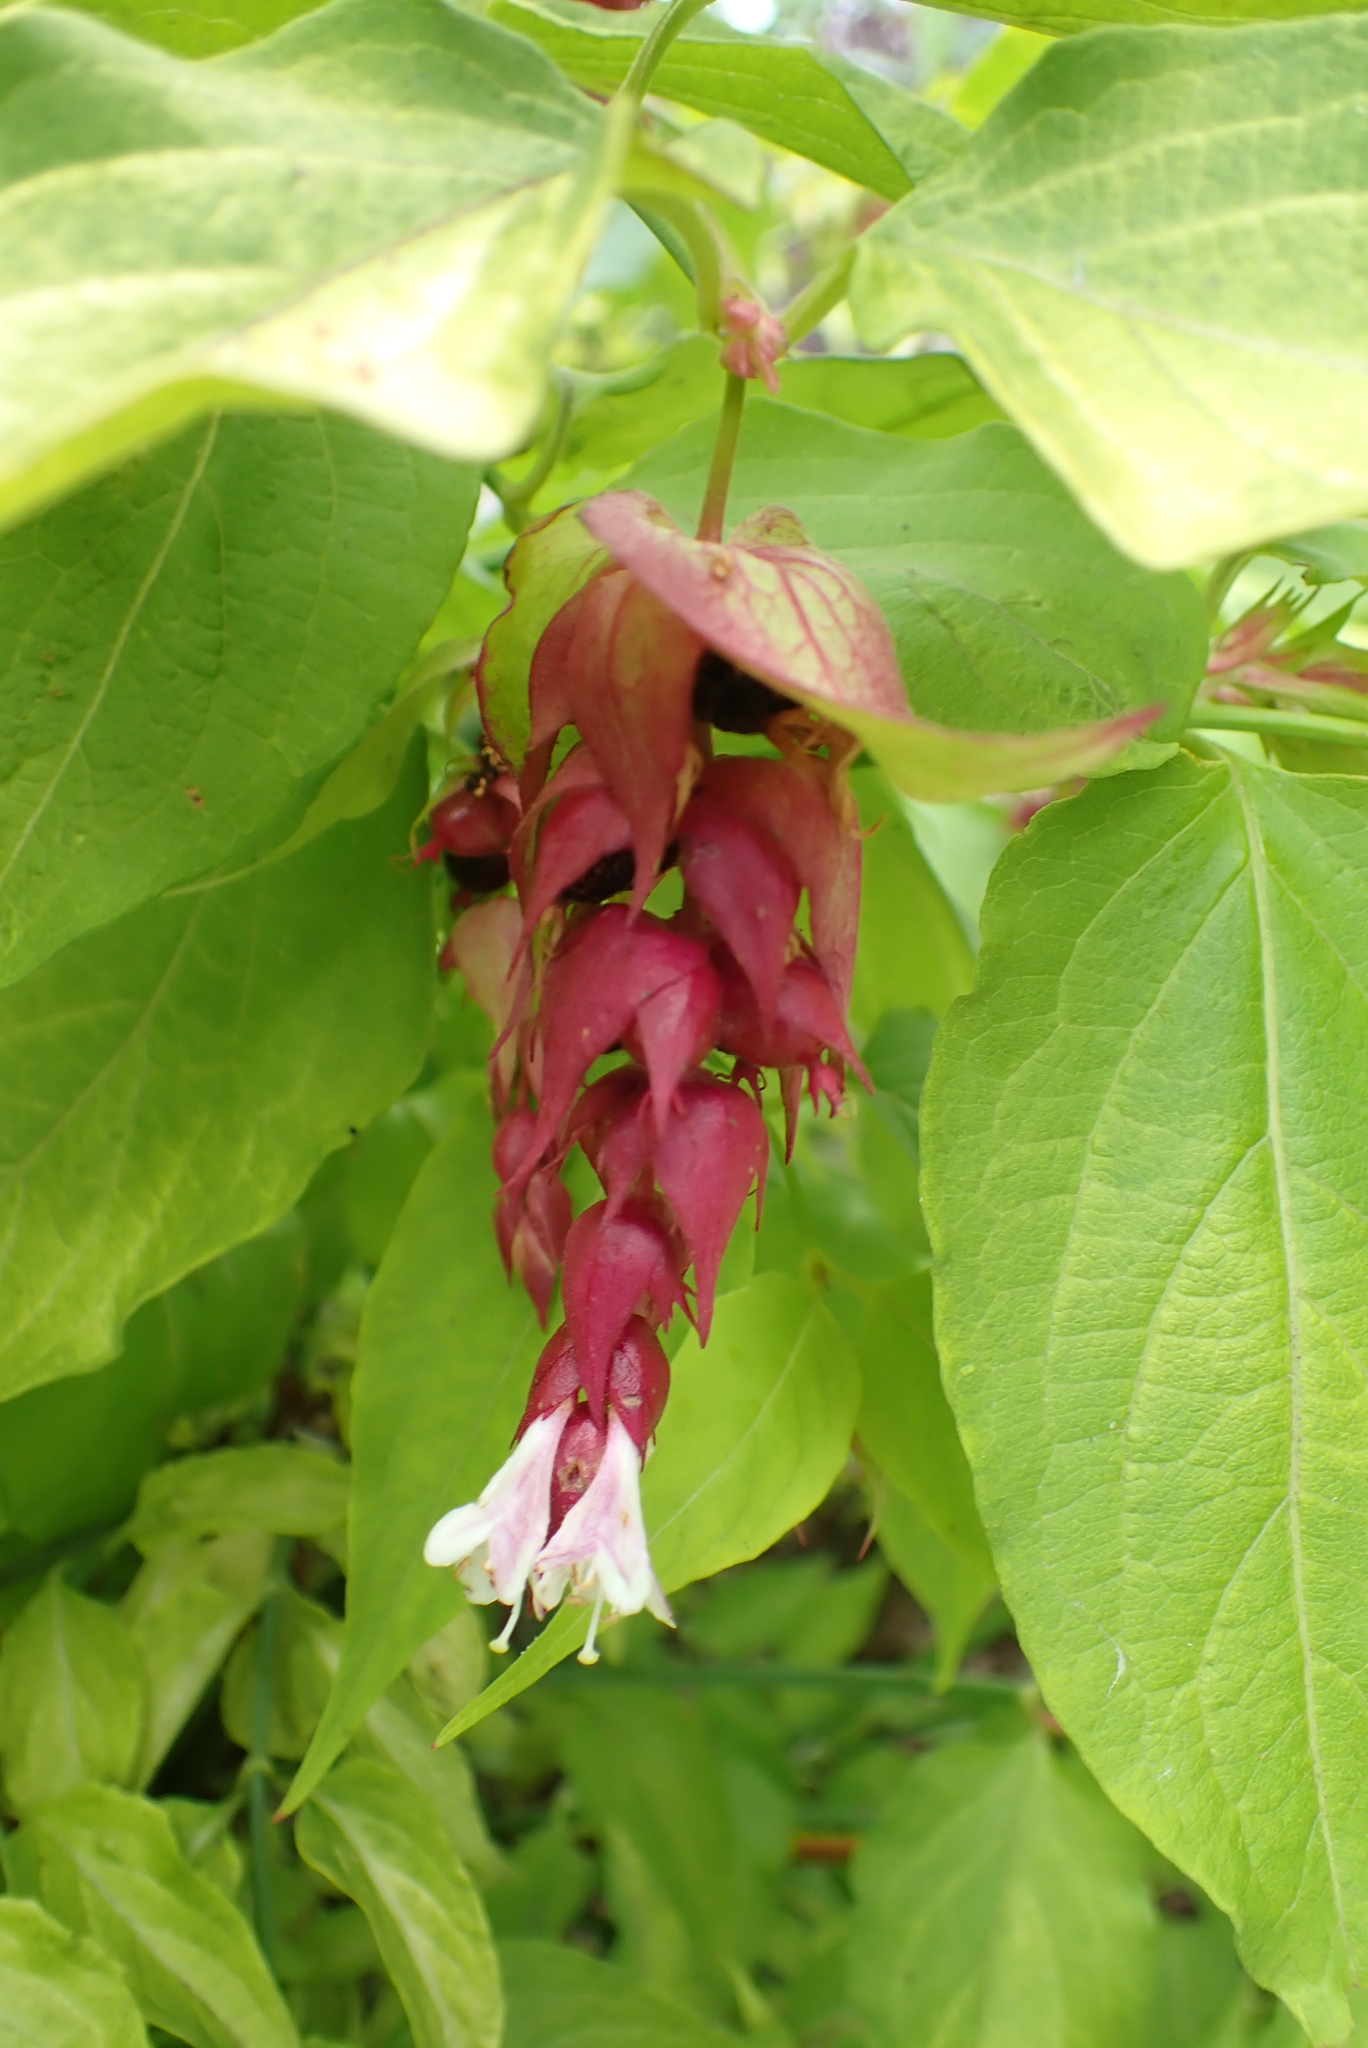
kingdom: Plantae
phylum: Tracheophyta
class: Magnoliopsida
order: Dipsacales
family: Caprifoliaceae
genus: Leycesteria
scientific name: Leycesteria formosa
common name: Himalayan honeysuckle
